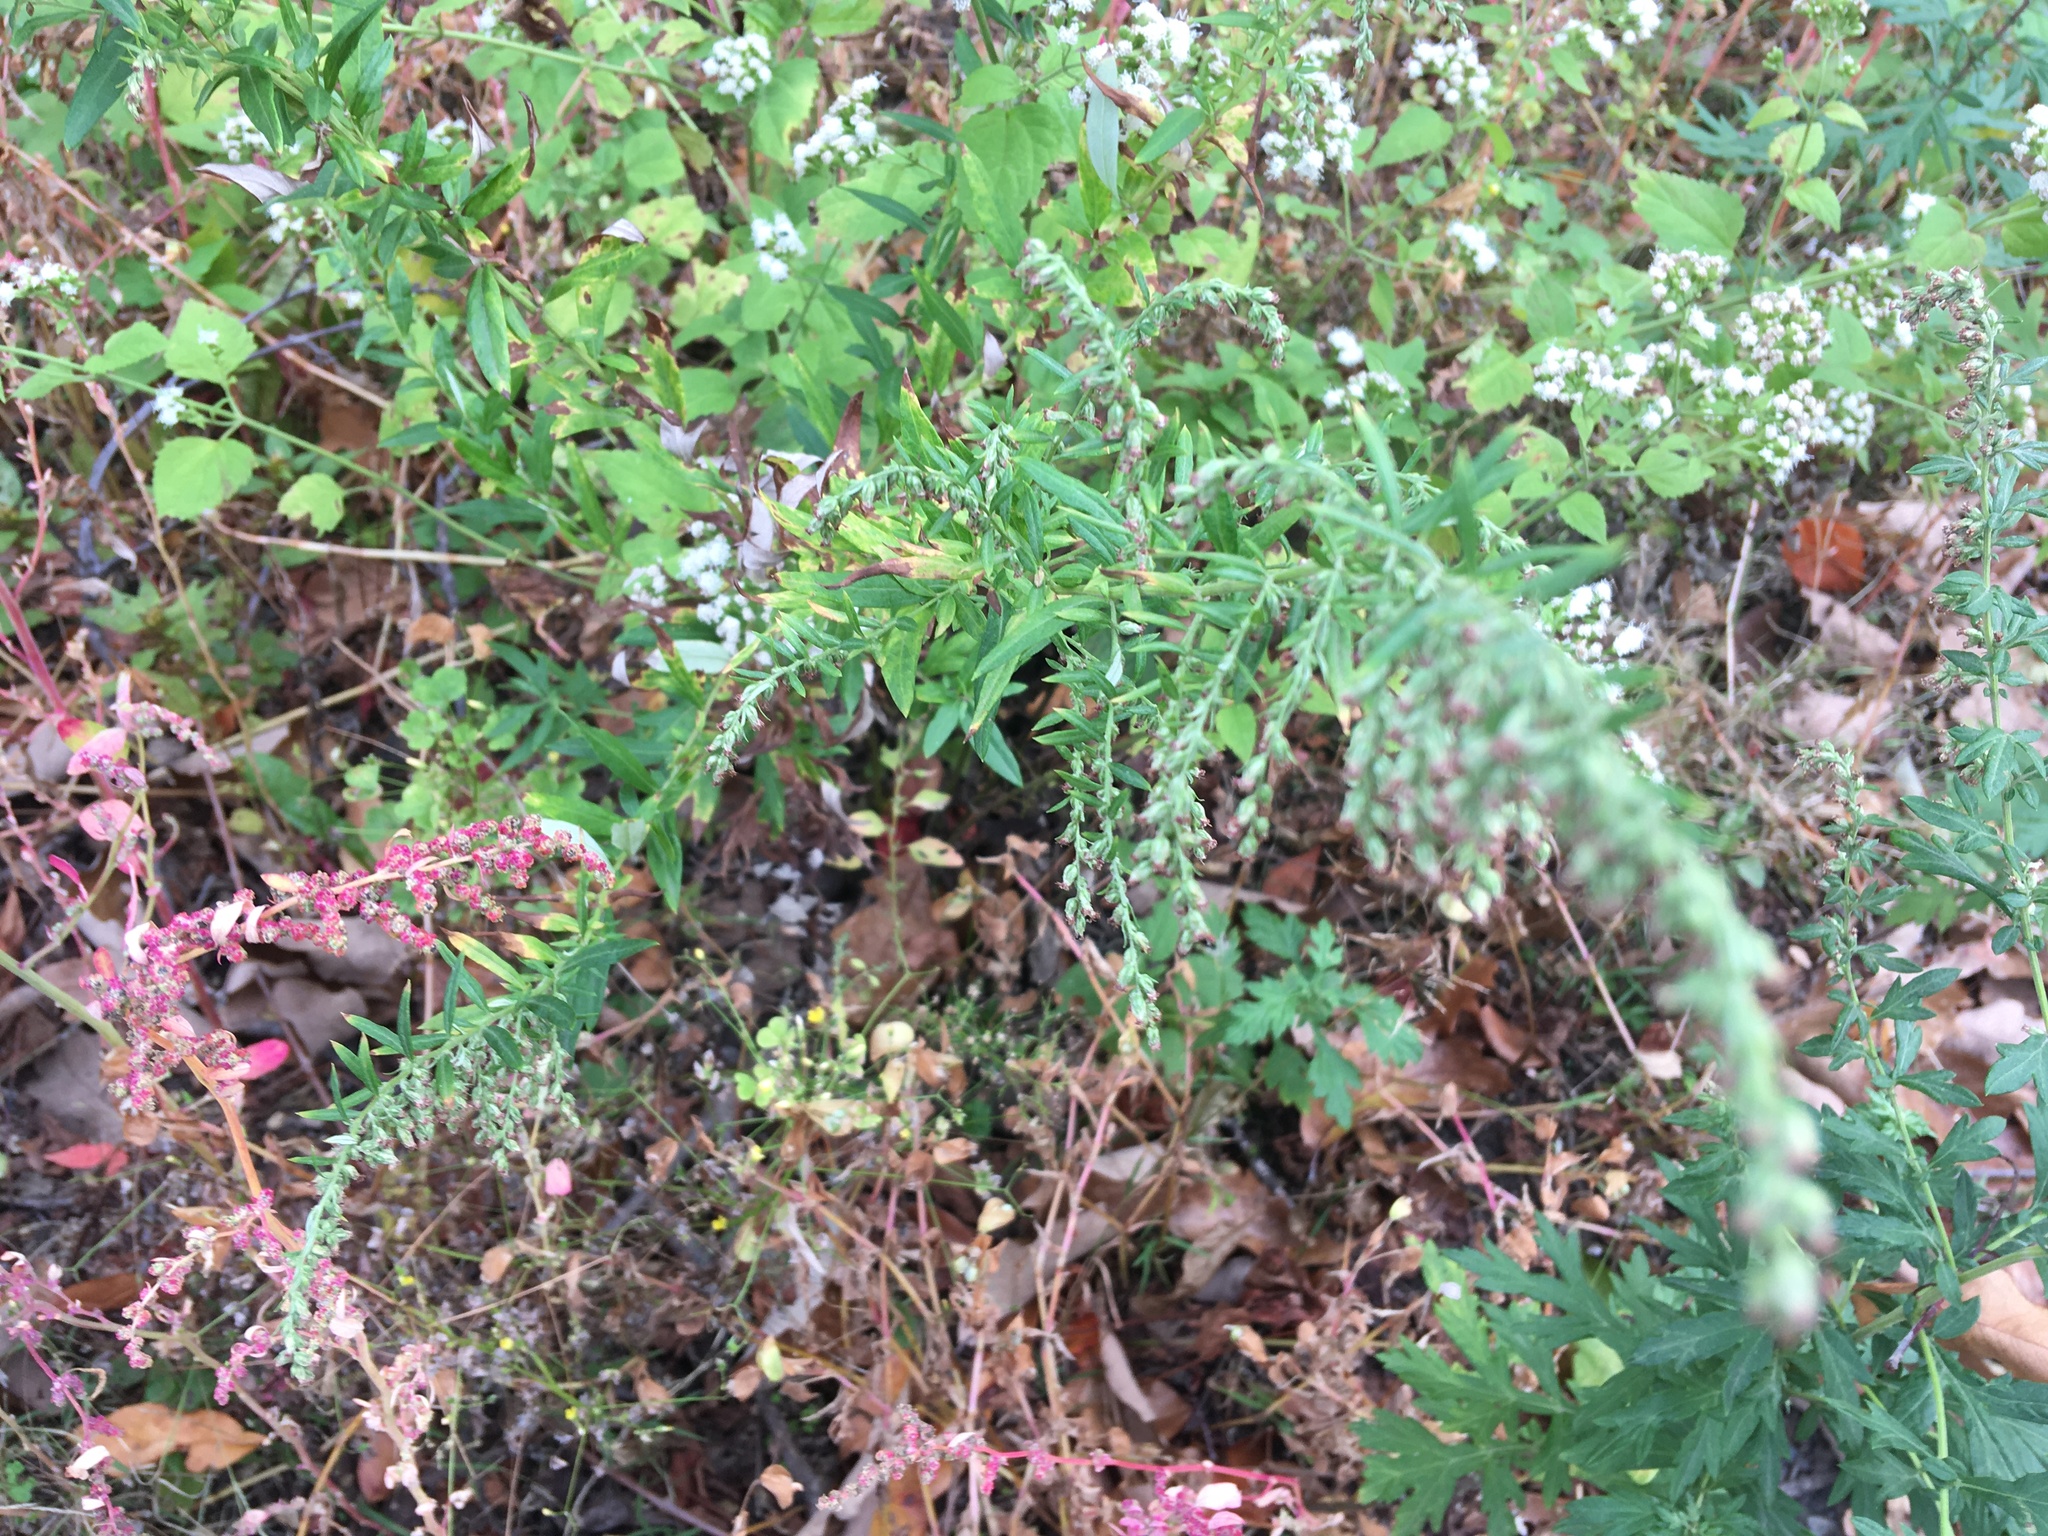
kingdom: Plantae
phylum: Tracheophyta
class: Magnoliopsida
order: Asterales
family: Asteraceae
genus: Artemisia
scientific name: Artemisia vulgaris
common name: Mugwort
